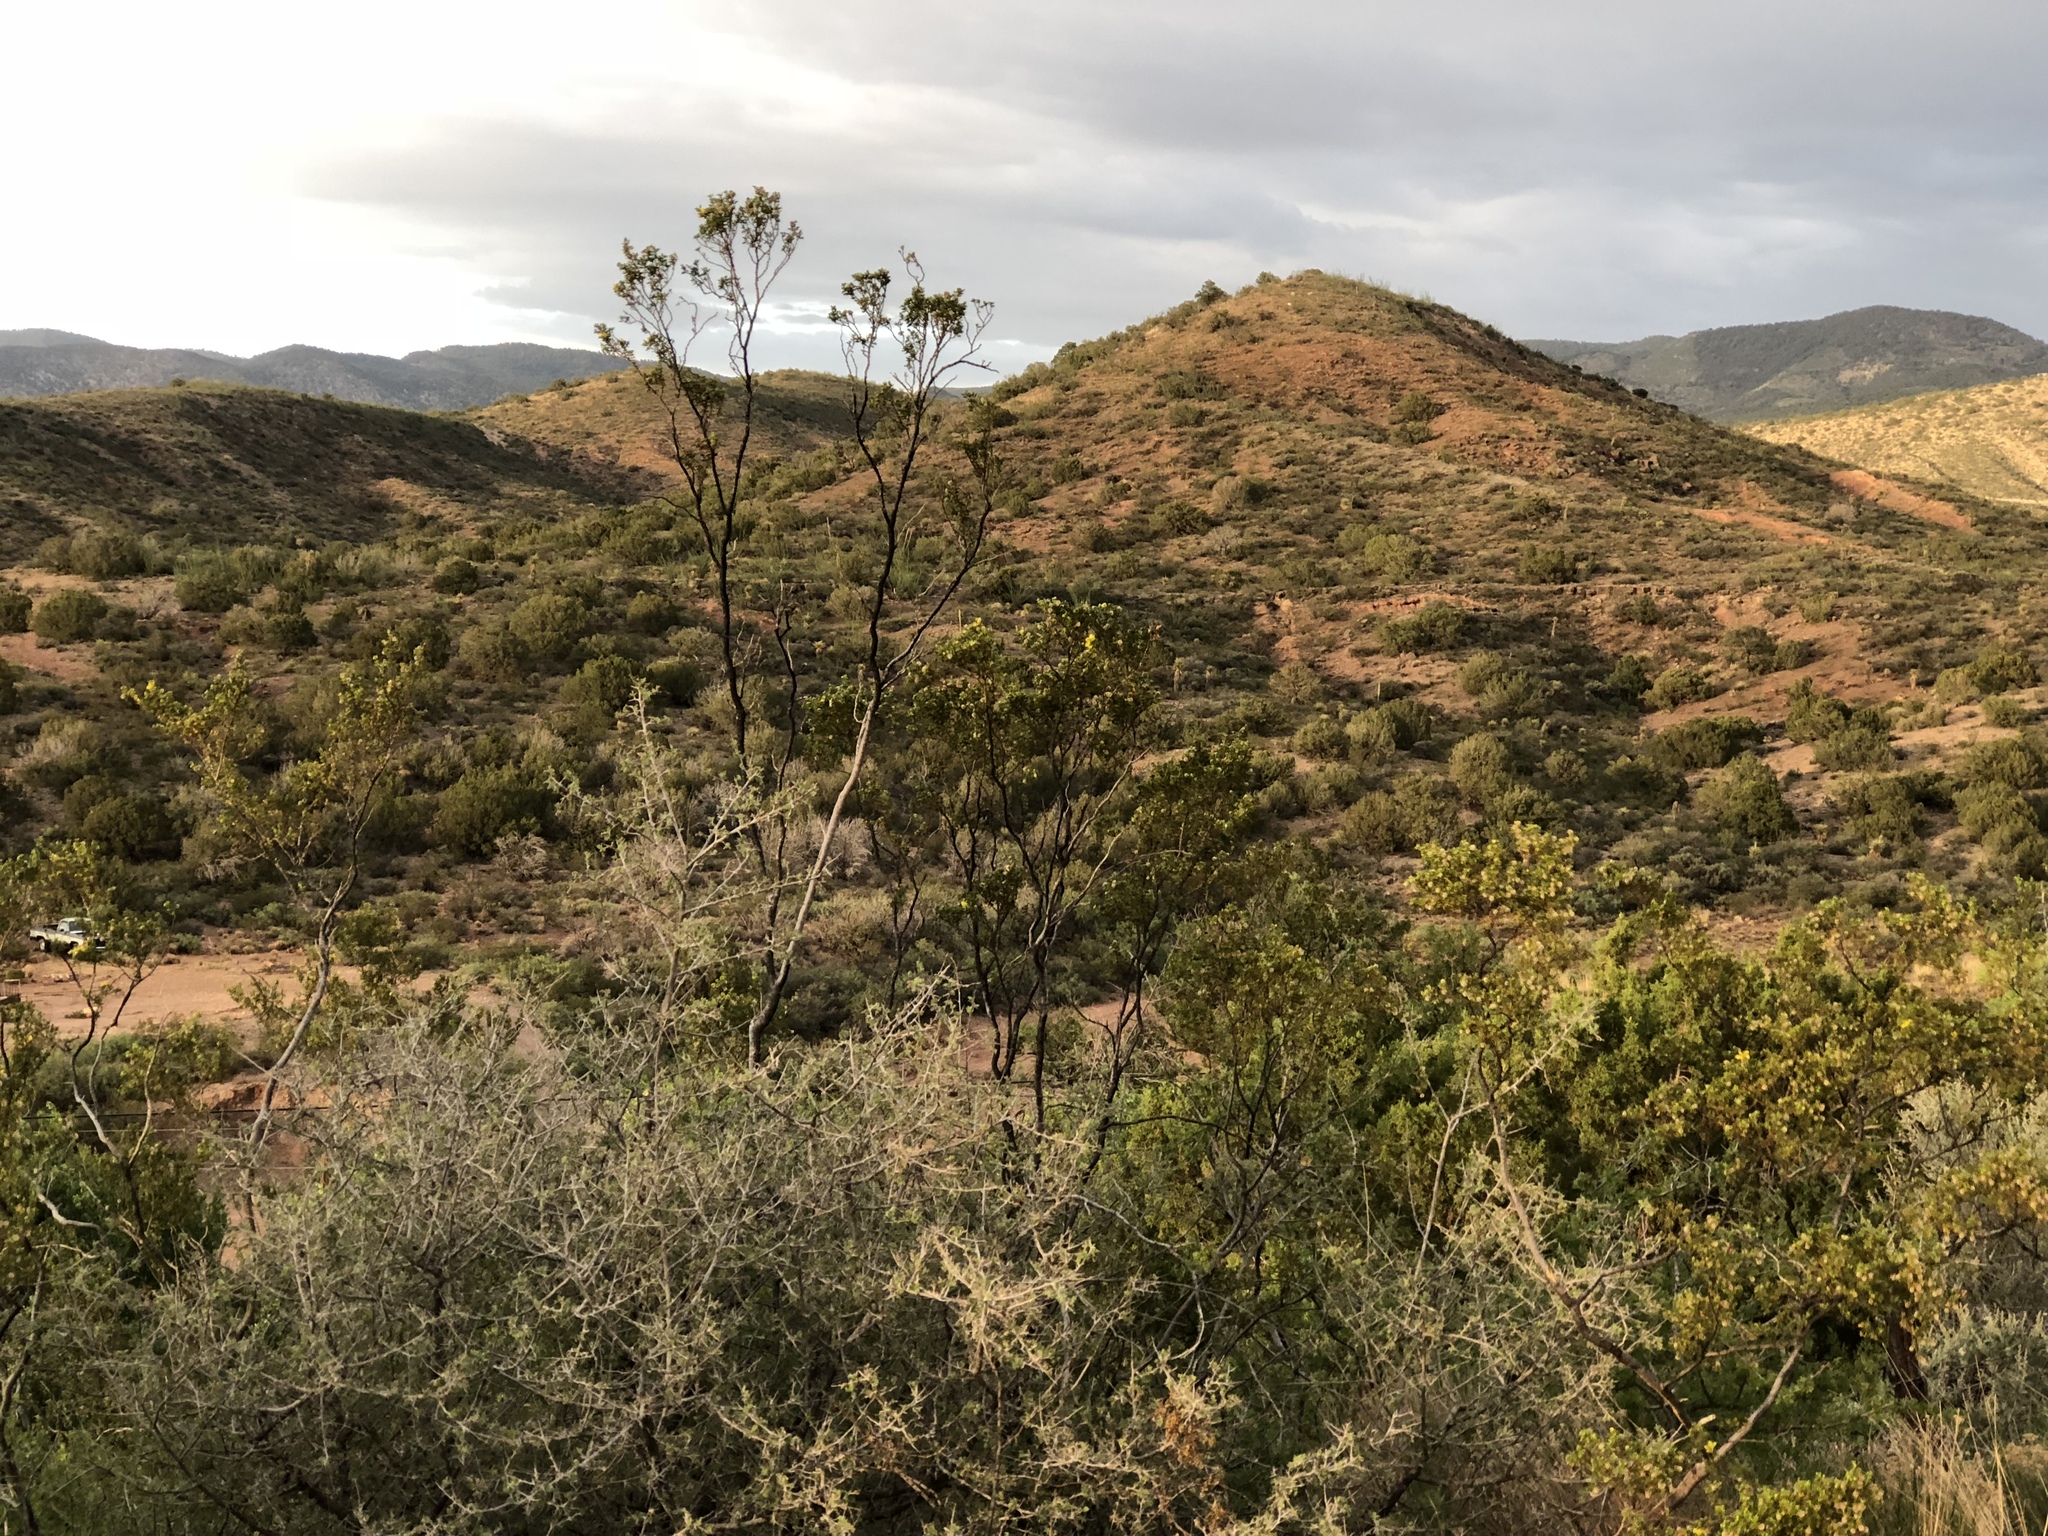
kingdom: Plantae
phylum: Tracheophyta
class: Magnoliopsida
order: Zygophyllales
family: Zygophyllaceae
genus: Larrea
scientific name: Larrea tridentata
